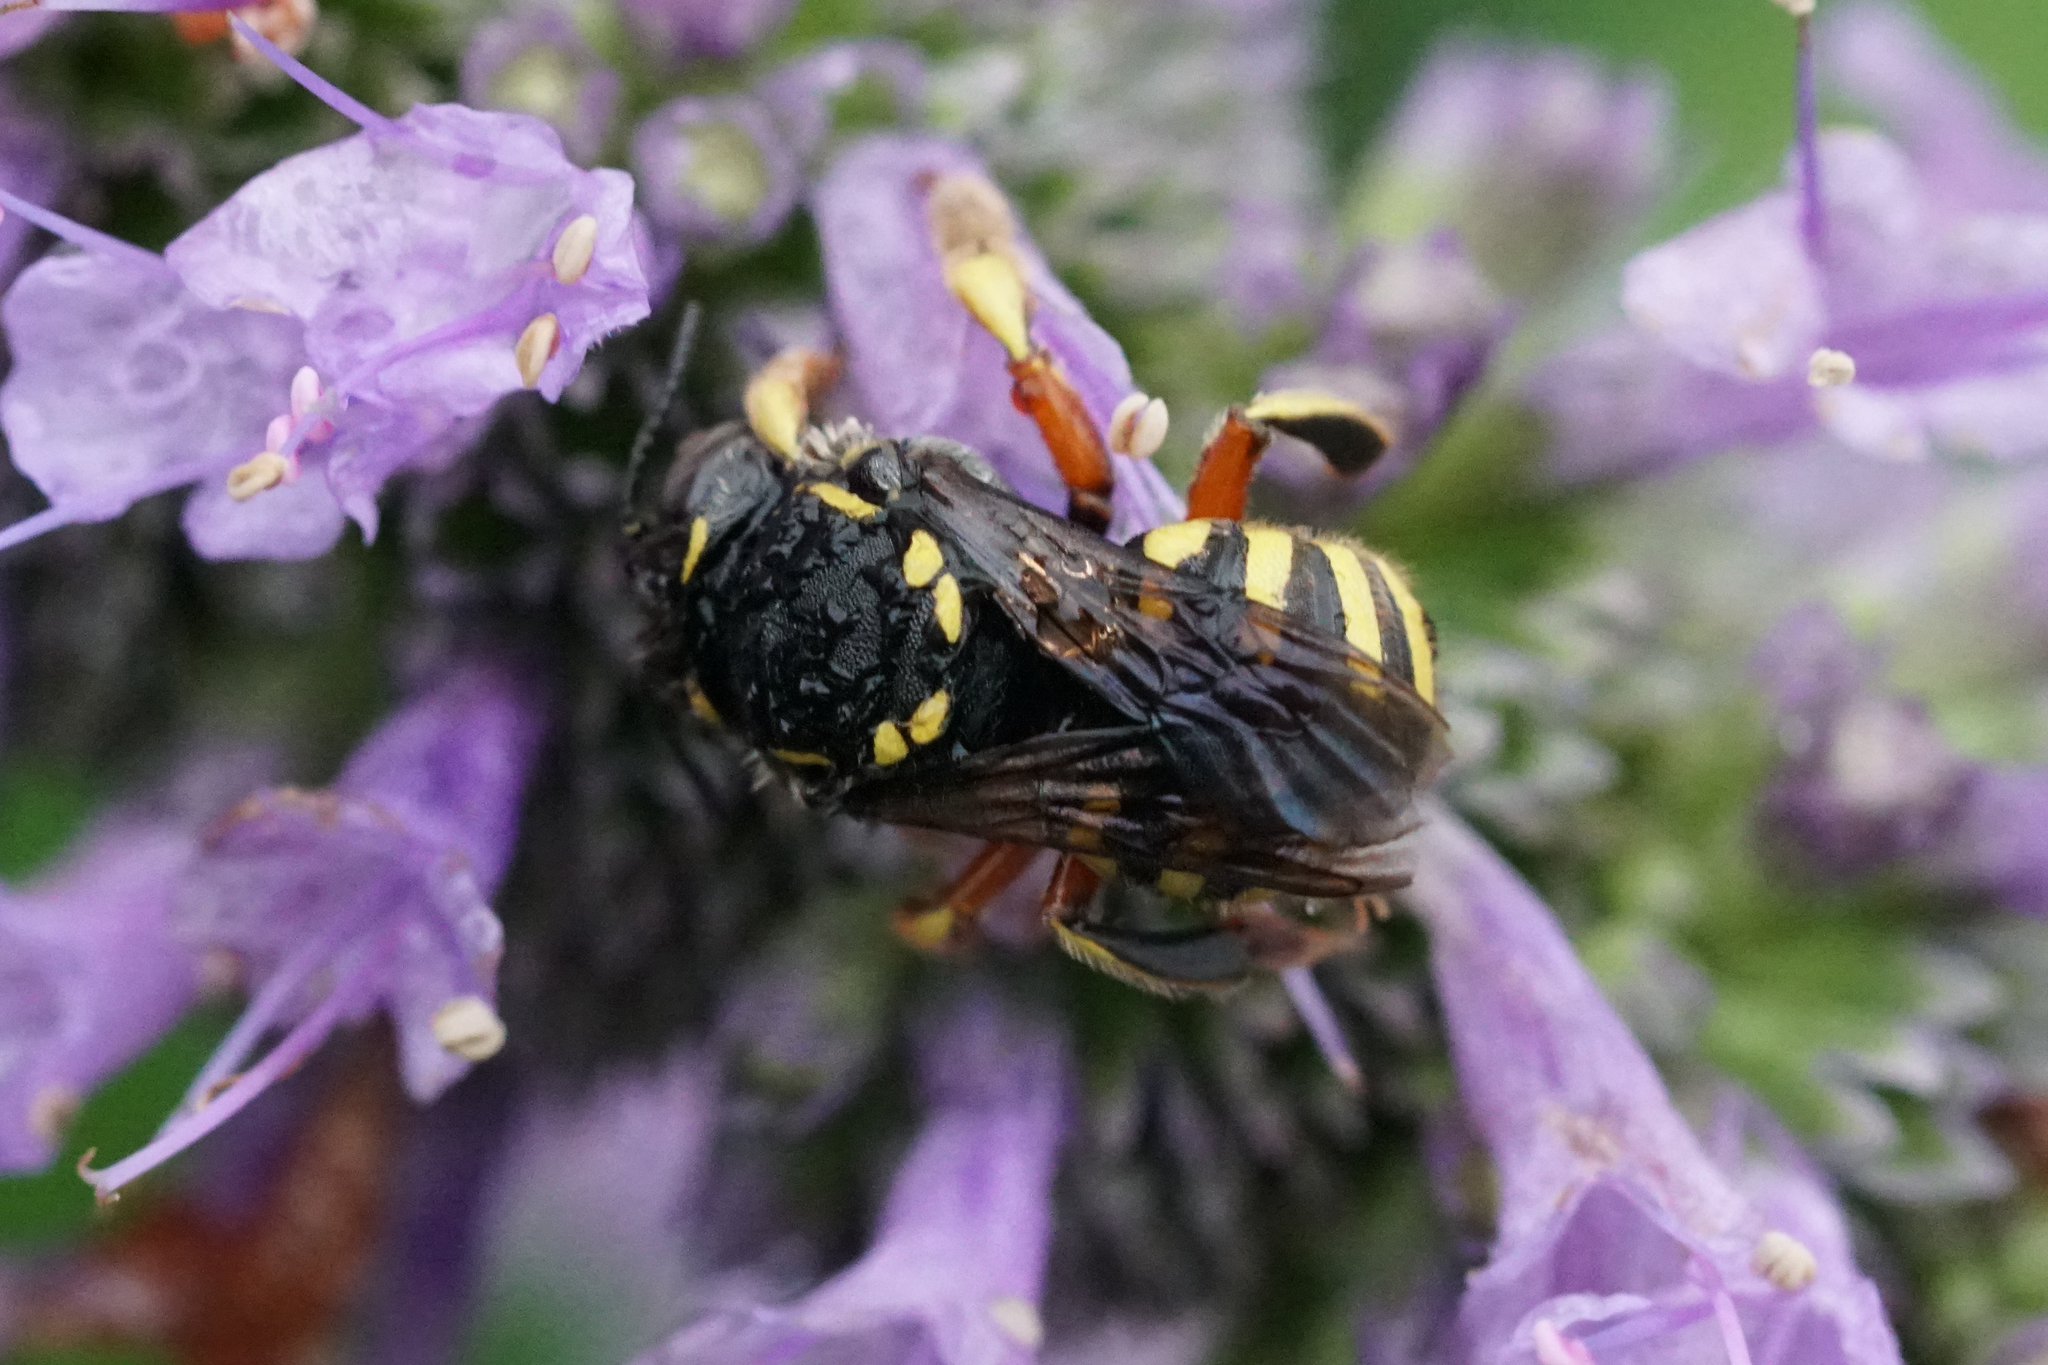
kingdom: Animalia
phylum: Arthropoda
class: Insecta
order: Hymenoptera
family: Megachilidae
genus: Anthidium
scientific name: Anthidium manicatum
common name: Wool carder bee
